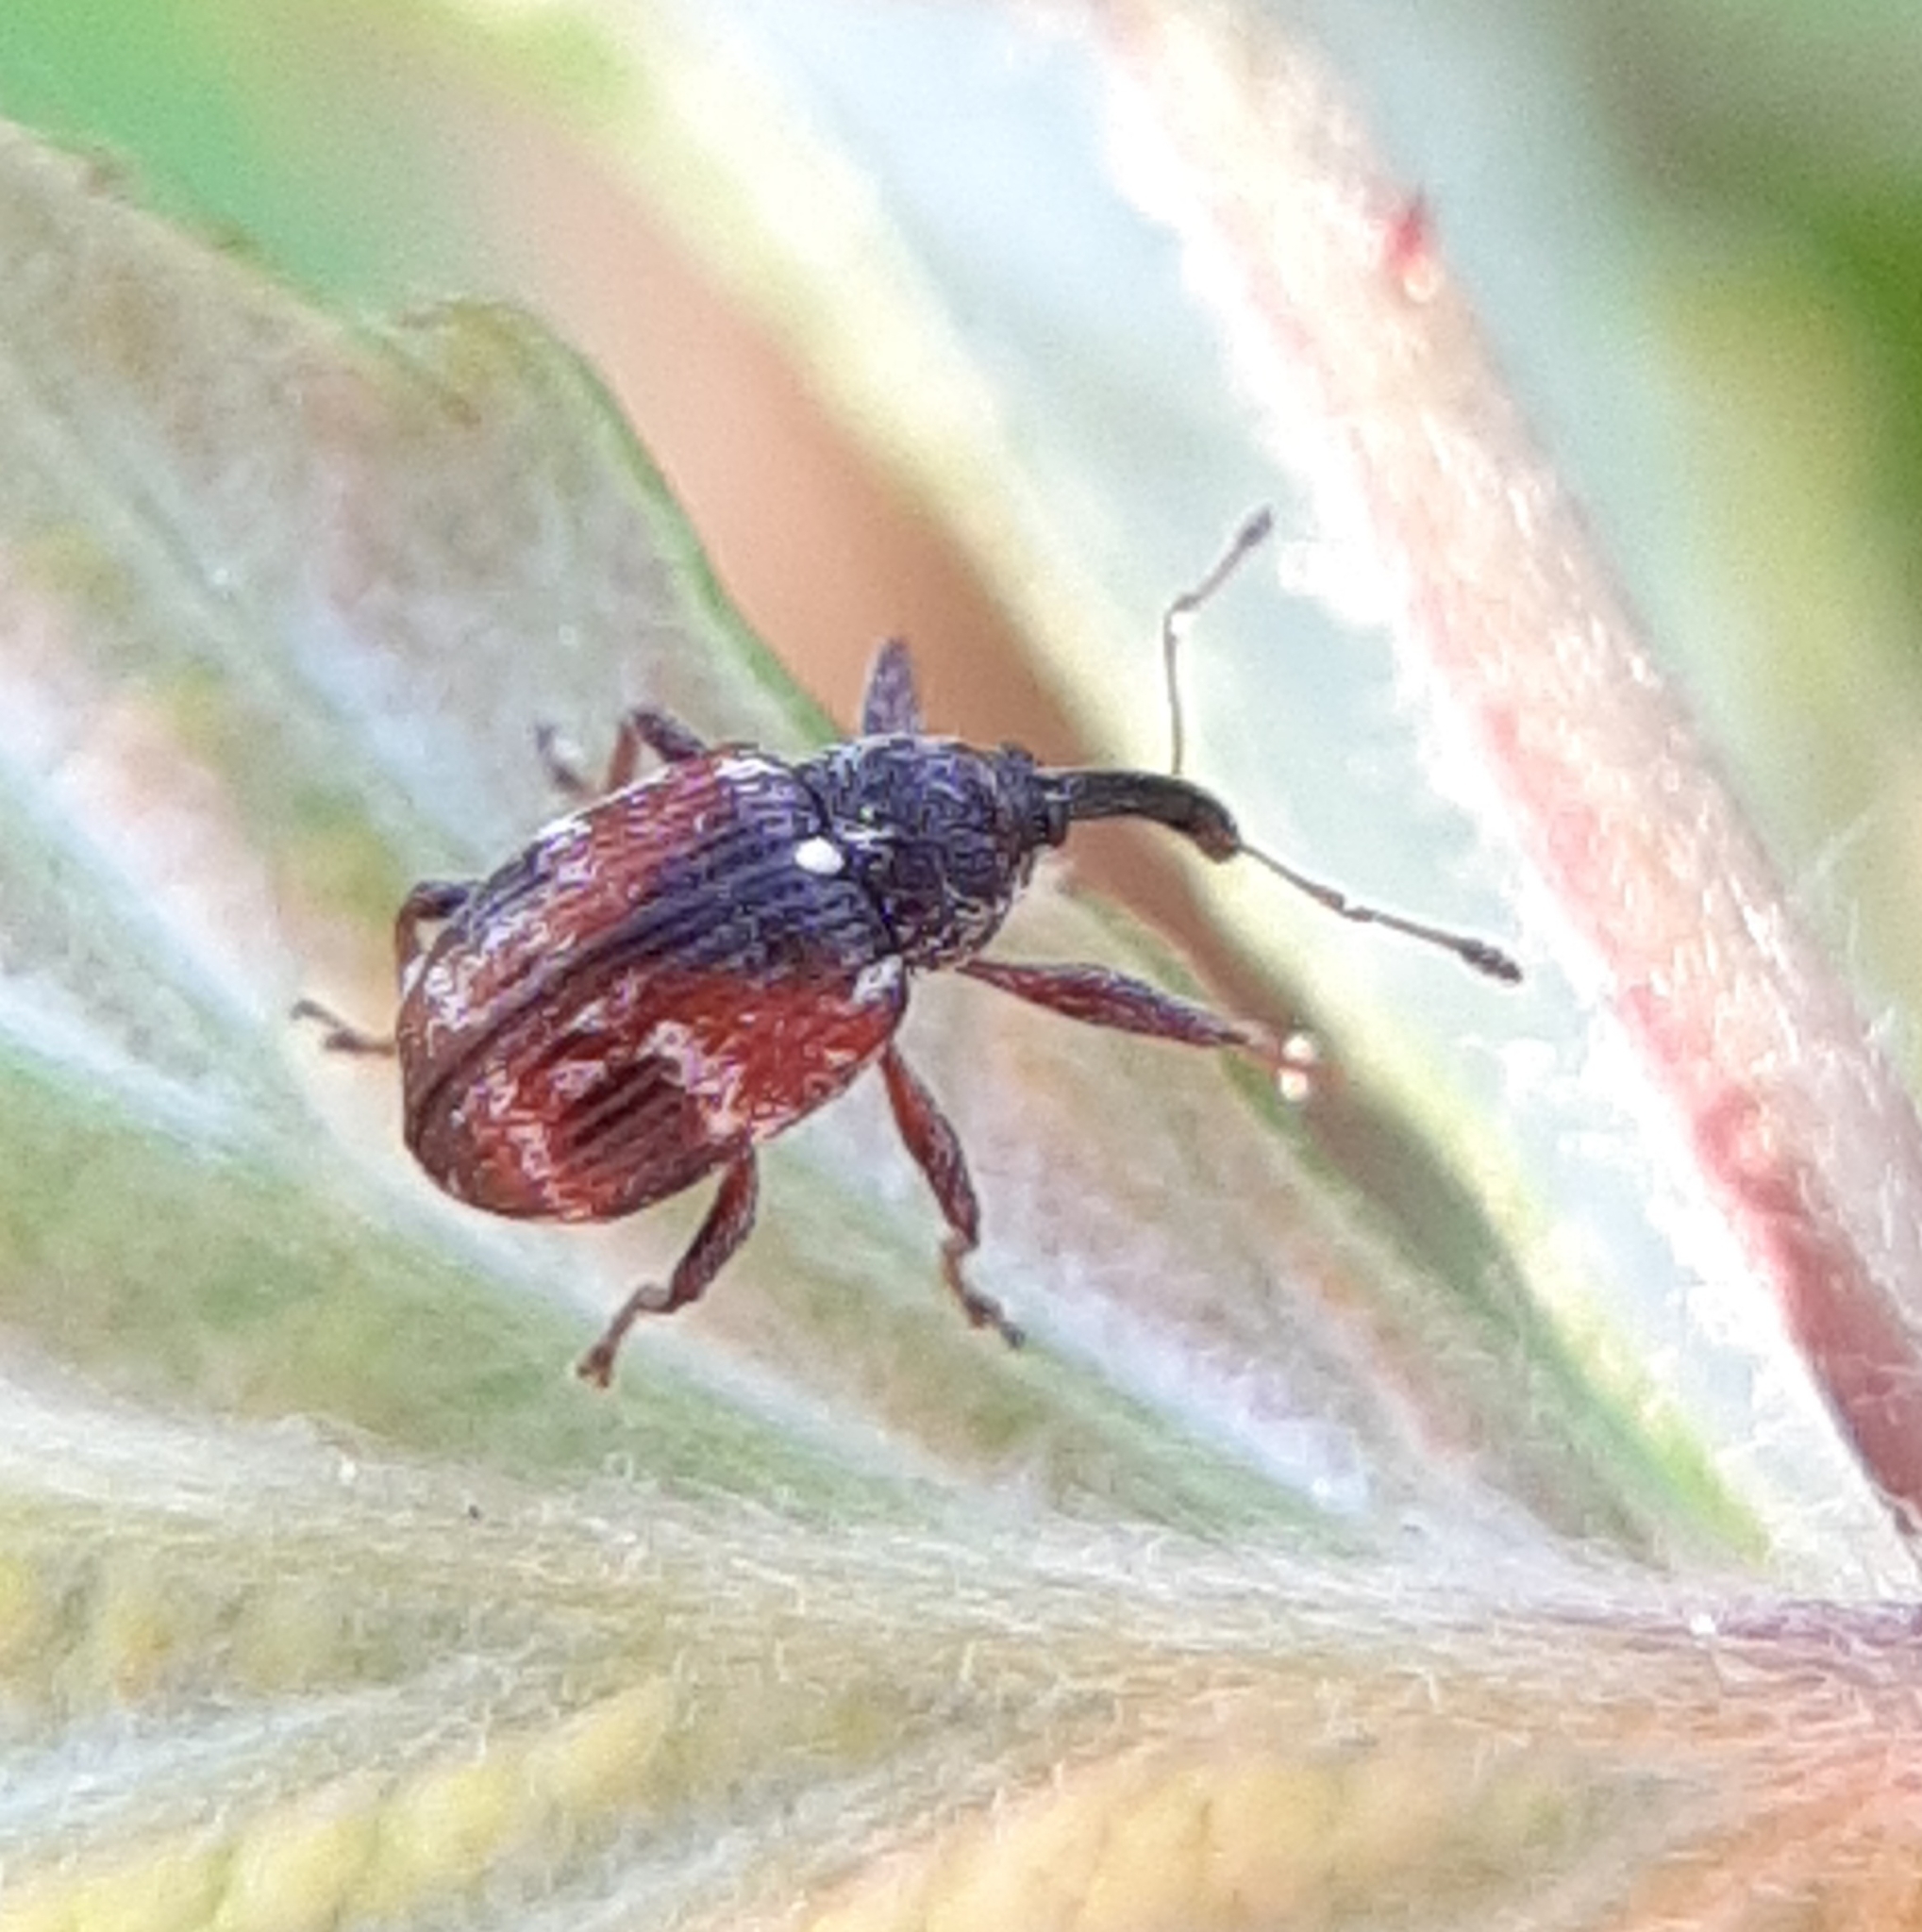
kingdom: Animalia
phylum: Arthropoda
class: Insecta
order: Coleoptera
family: Curculionidae
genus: Anthonomus
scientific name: Anthonomus signatus
